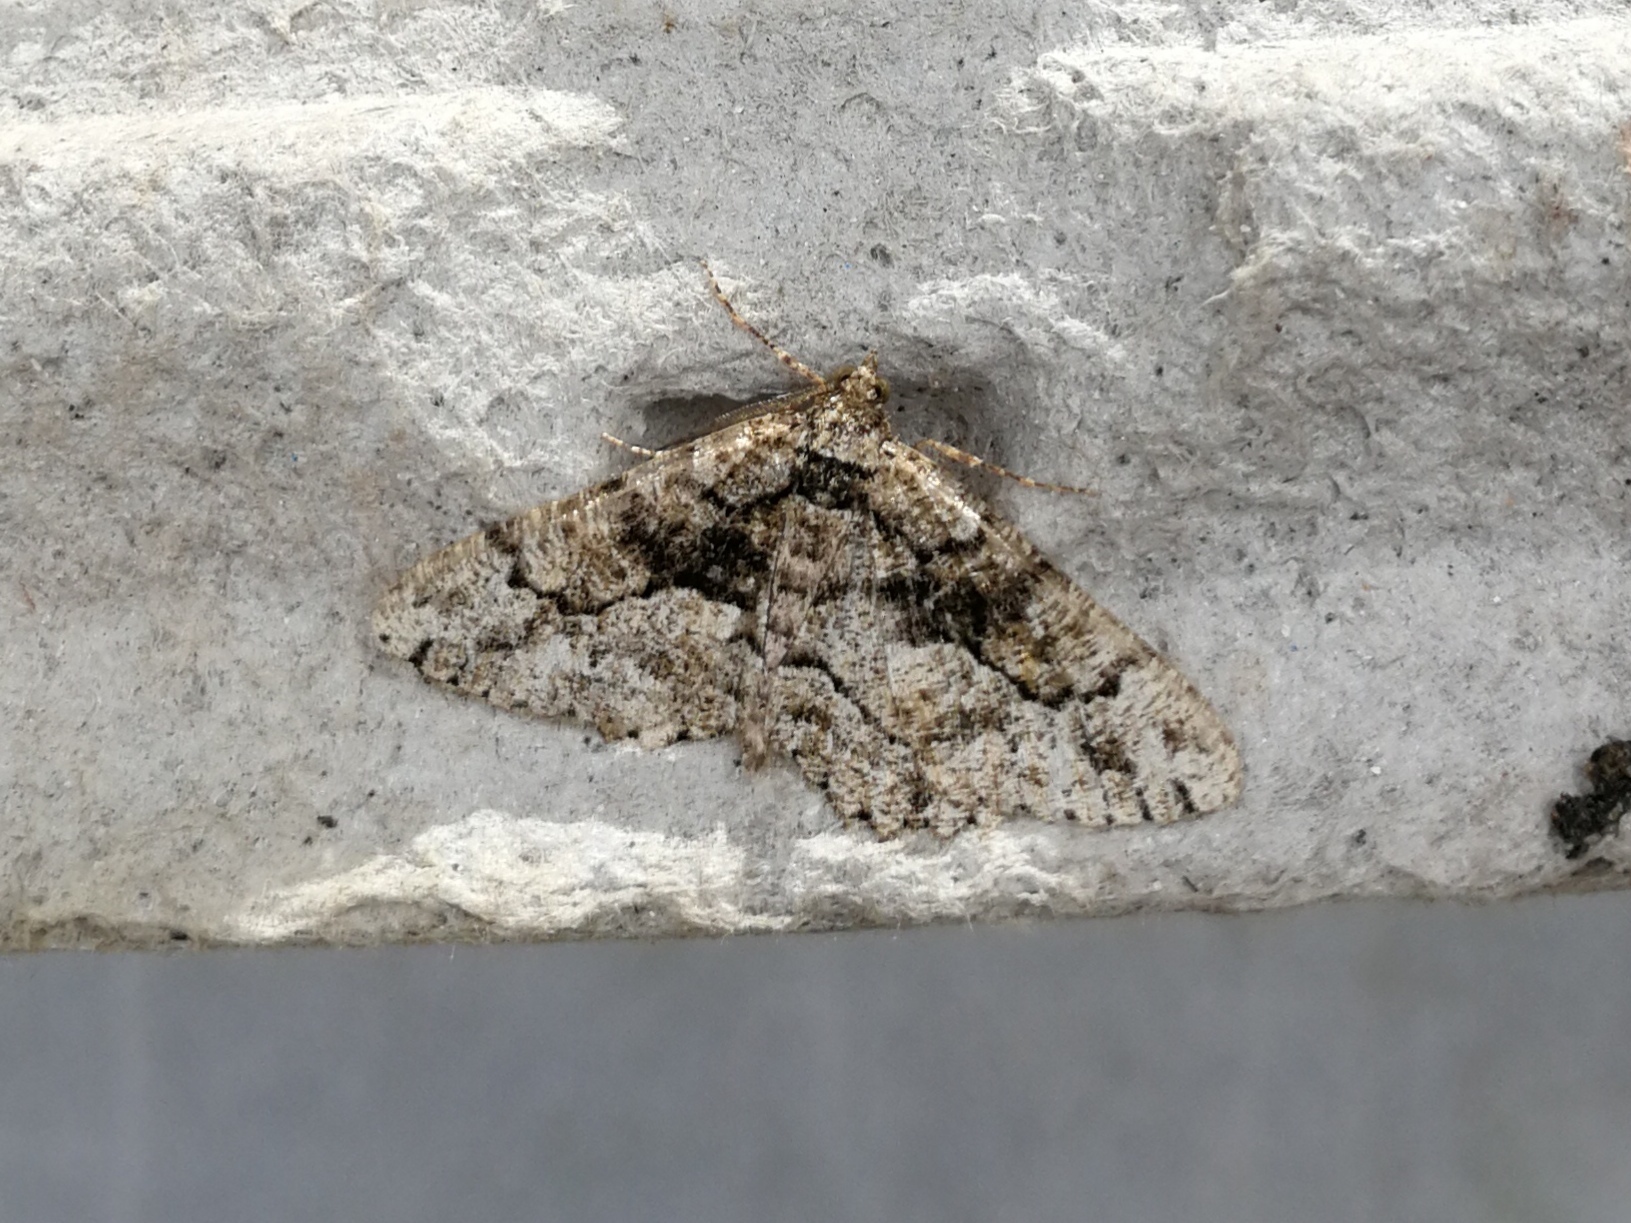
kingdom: Animalia
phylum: Arthropoda
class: Insecta
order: Lepidoptera
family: Geometridae
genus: Peribatodes
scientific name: Peribatodes ilicaria
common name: Lydd beauty
